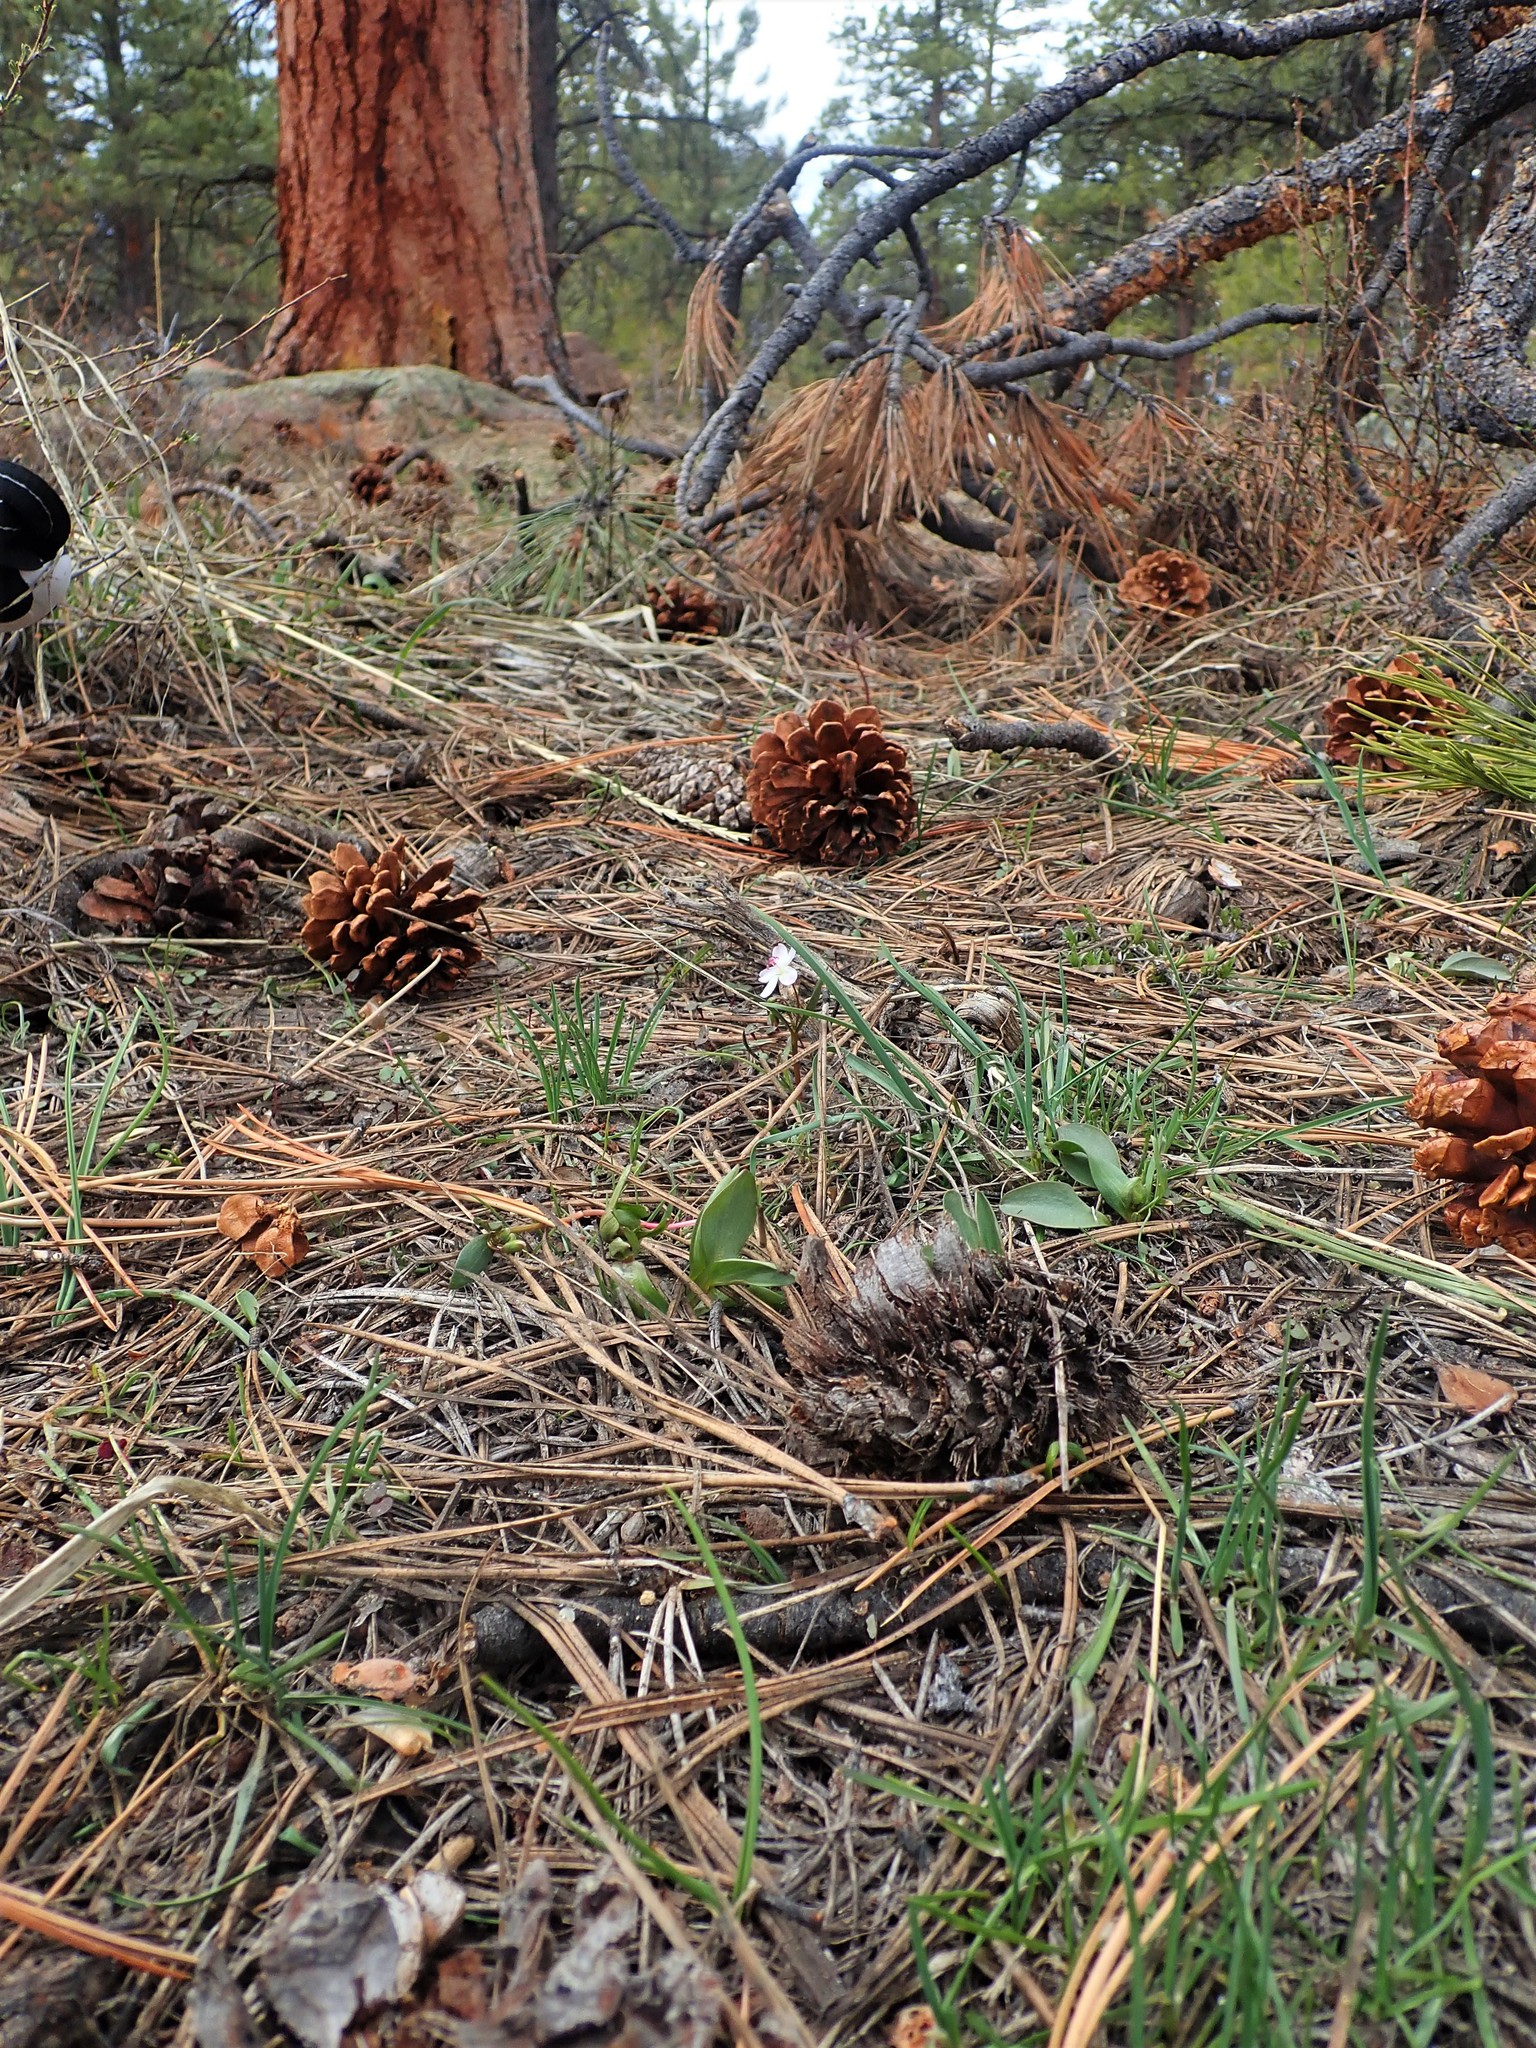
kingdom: Plantae
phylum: Tracheophyta
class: Magnoliopsida
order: Caryophyllales
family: Montiaceae
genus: Claytonia
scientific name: Claytonia lanceolata
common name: Western spring-beauty
